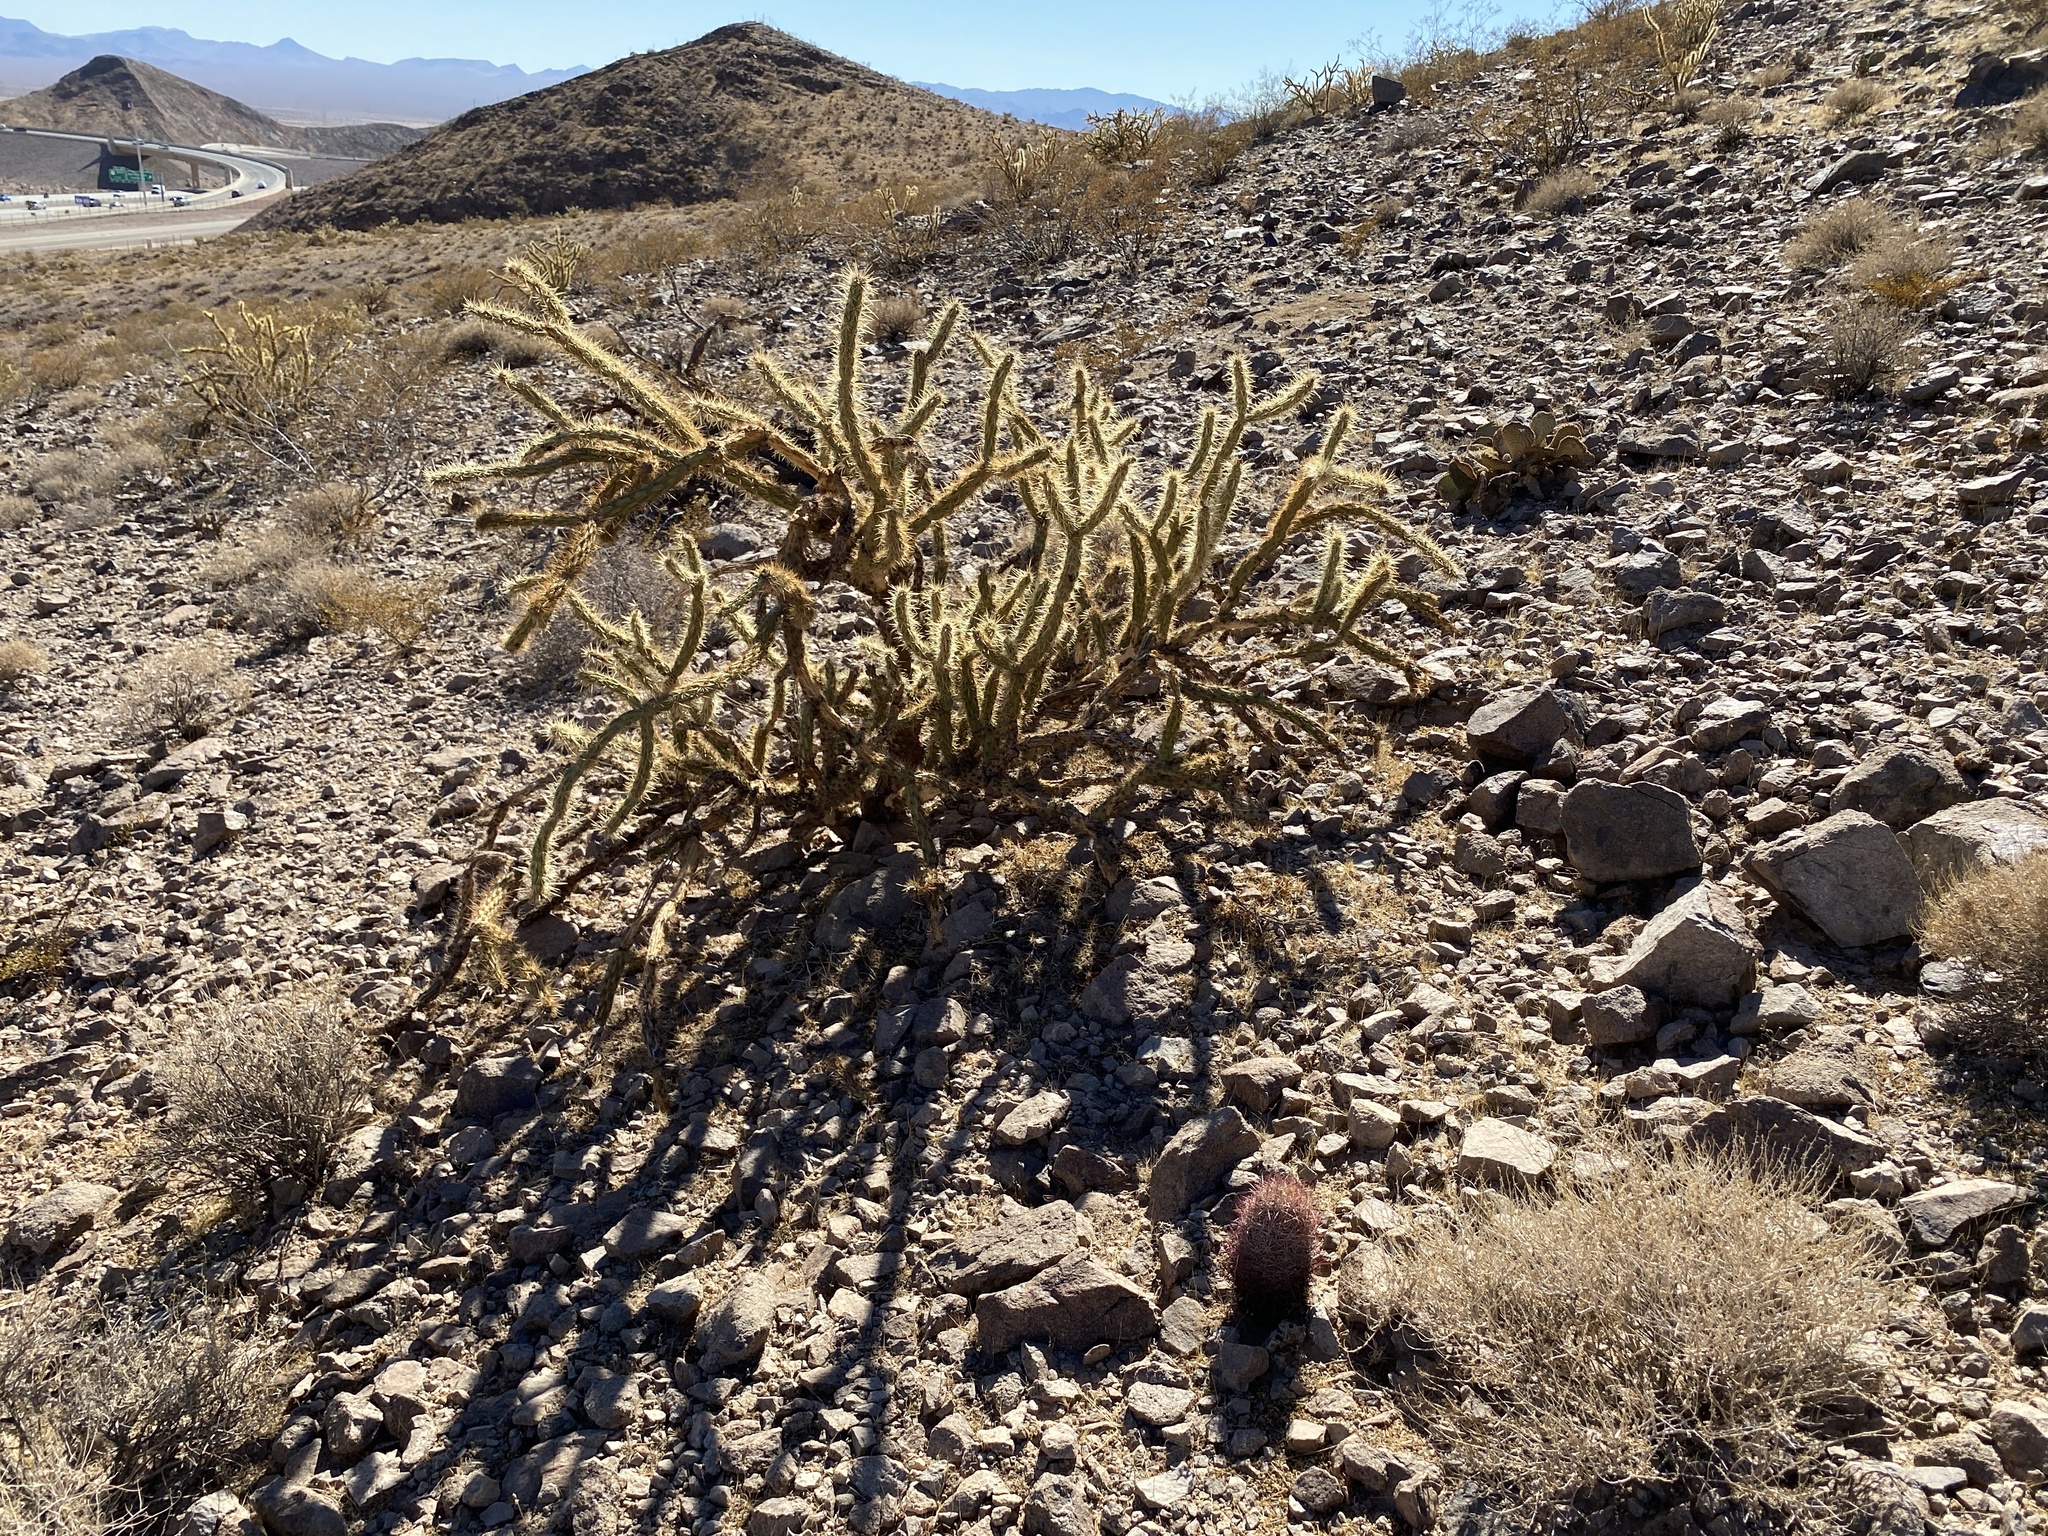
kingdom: Plantae
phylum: Tracheophyta
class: Magnoliopsida
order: Caryophyllales
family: Cactaceae
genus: Cylindropuntia
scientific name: Cylindropuntia acanthocarpa
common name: Buckhorn cholla
